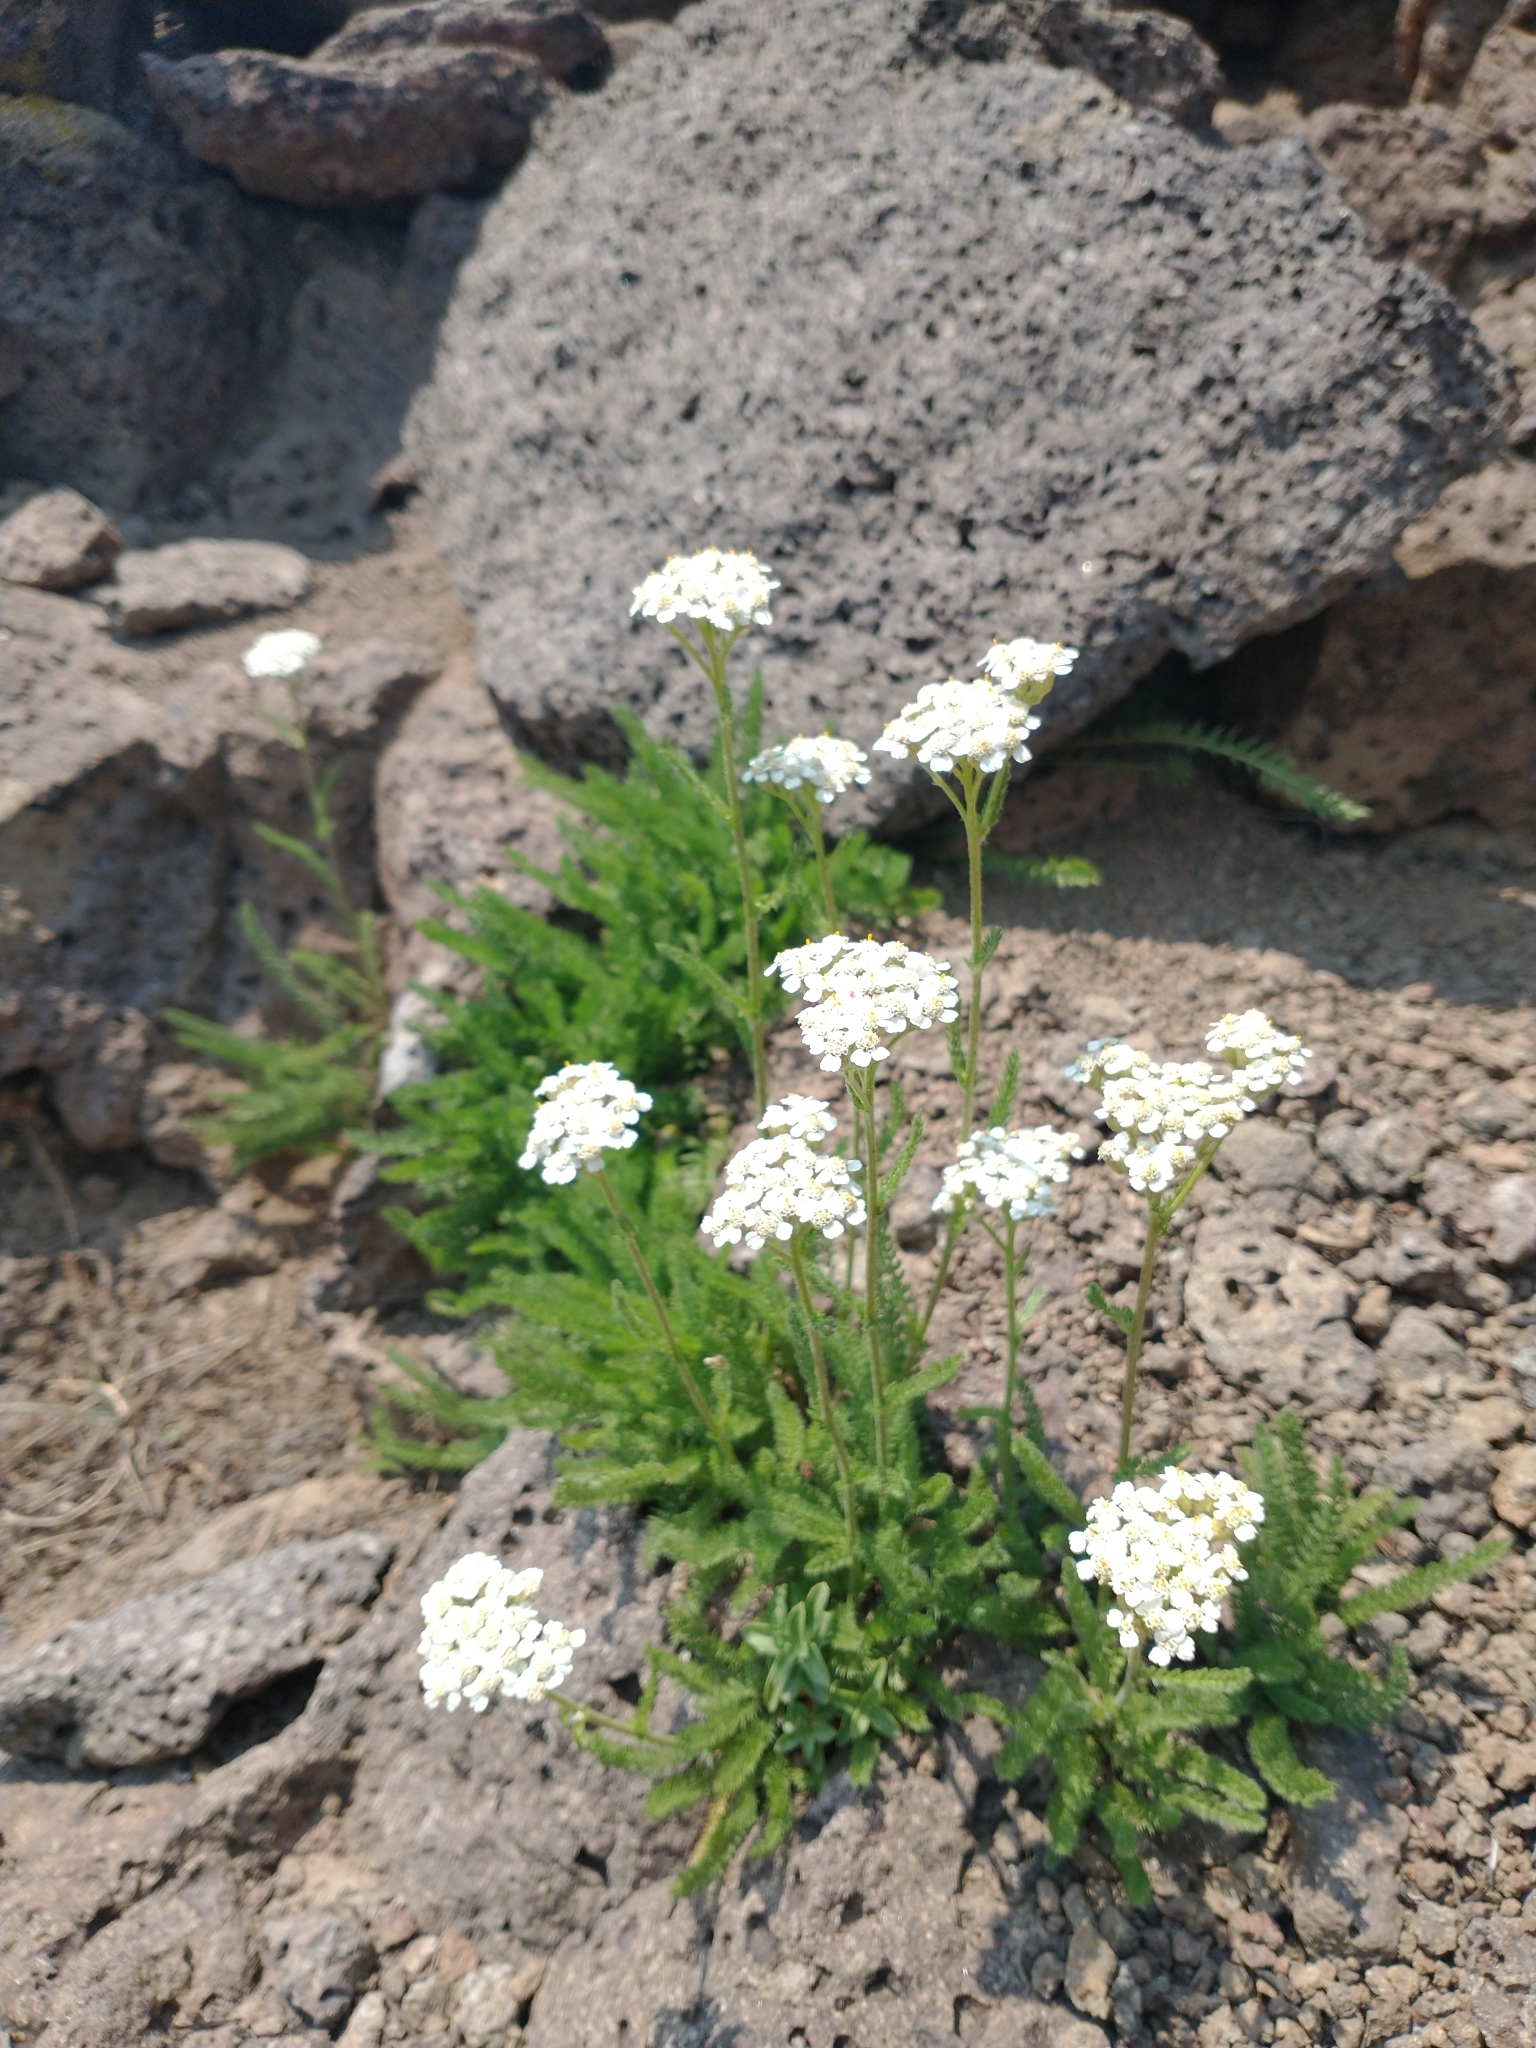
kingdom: Plantae
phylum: Tracheophyta
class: Magnoliopsida
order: Asterales
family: Asteraceae
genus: Achillea
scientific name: Achillea millefolium
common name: Yarrow
